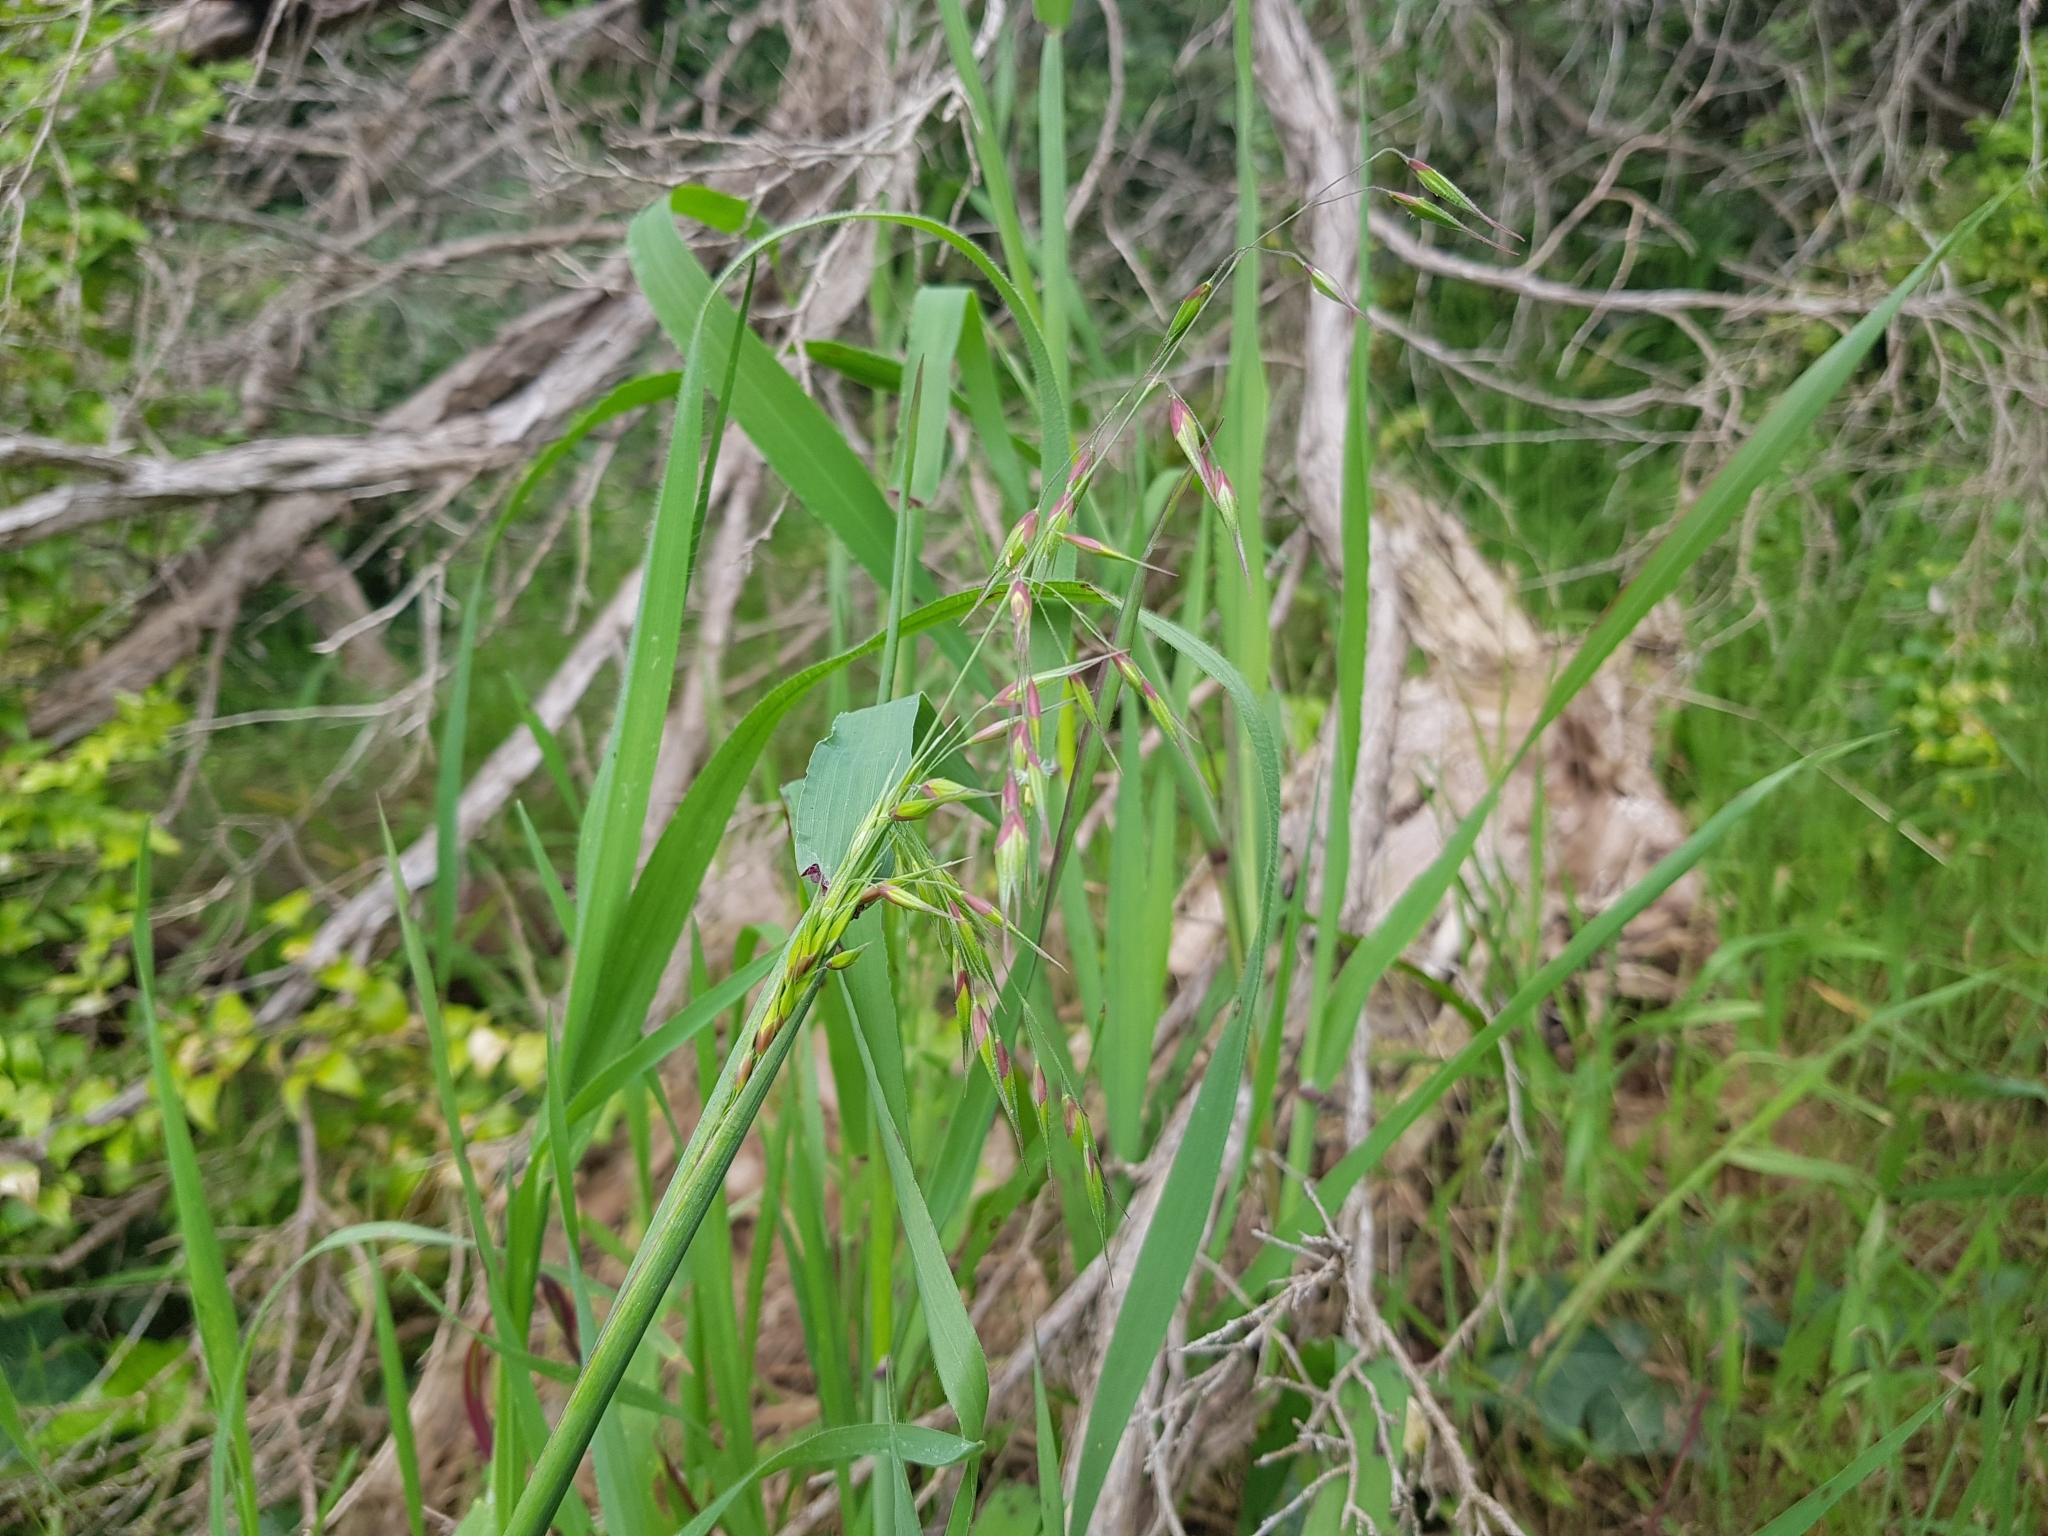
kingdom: Plantae
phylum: Tracheophyta
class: Liliopsida
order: Poales
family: Poaceae
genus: Ehrharta
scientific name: Ehrharta longiflora
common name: Longflowered veldtgrass
